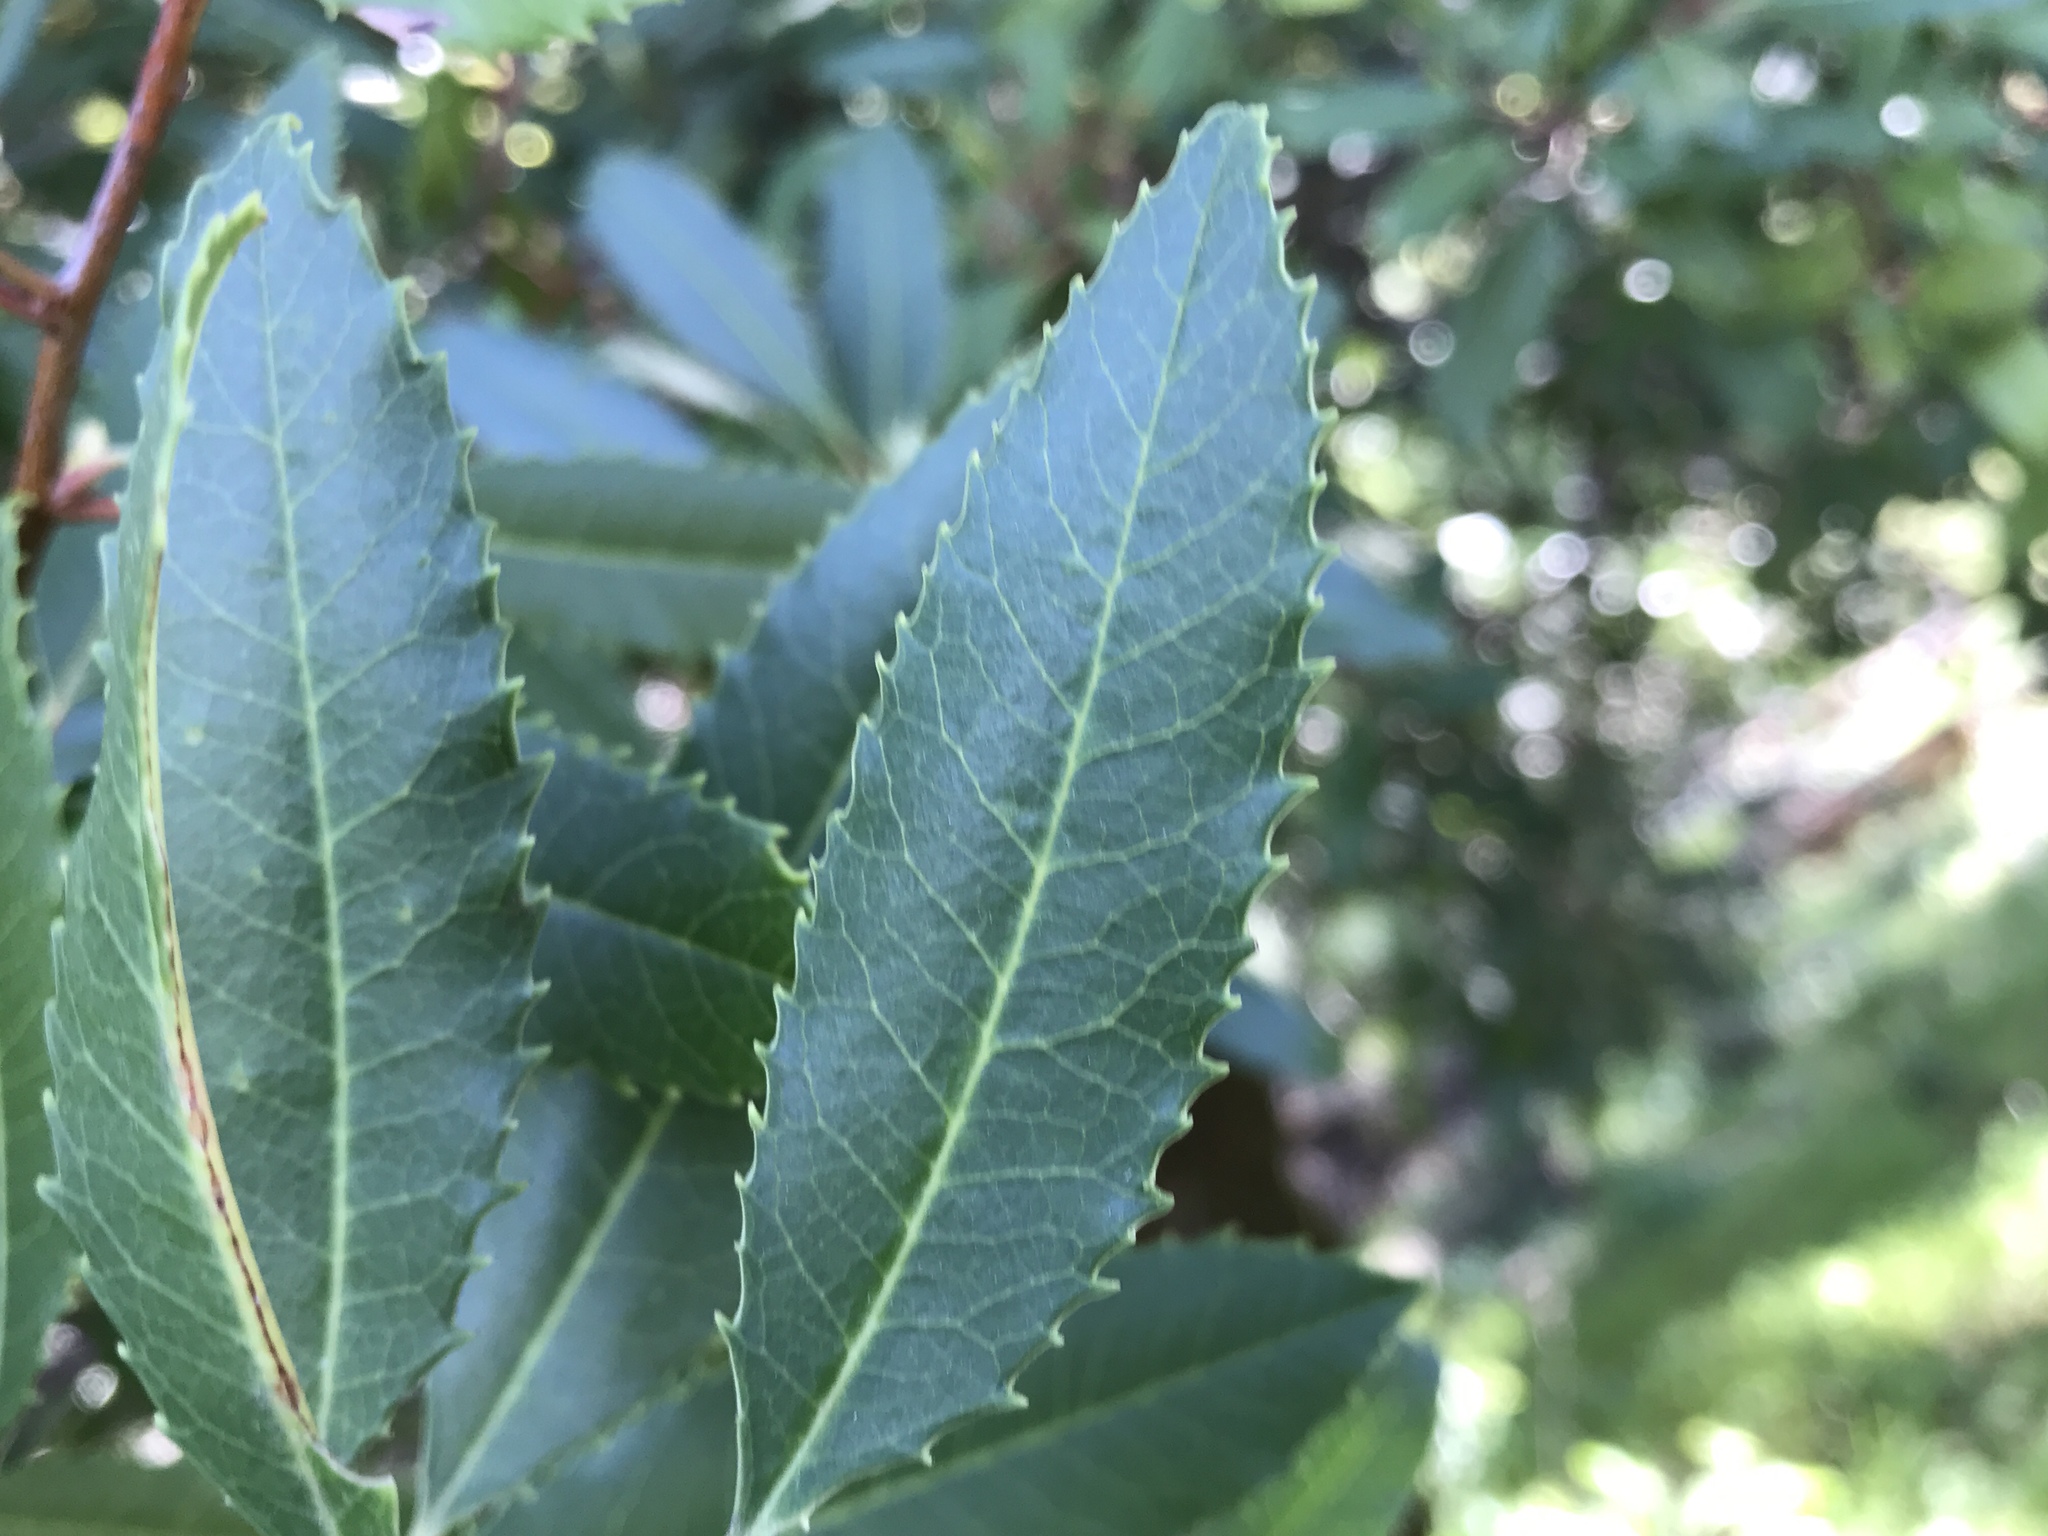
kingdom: Plantae
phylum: Tracheophyta
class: Magnoliopsida
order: Rosales
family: Rosaceae
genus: Heteromeles
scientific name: Heteromeles arbutifolia
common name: California-holly
